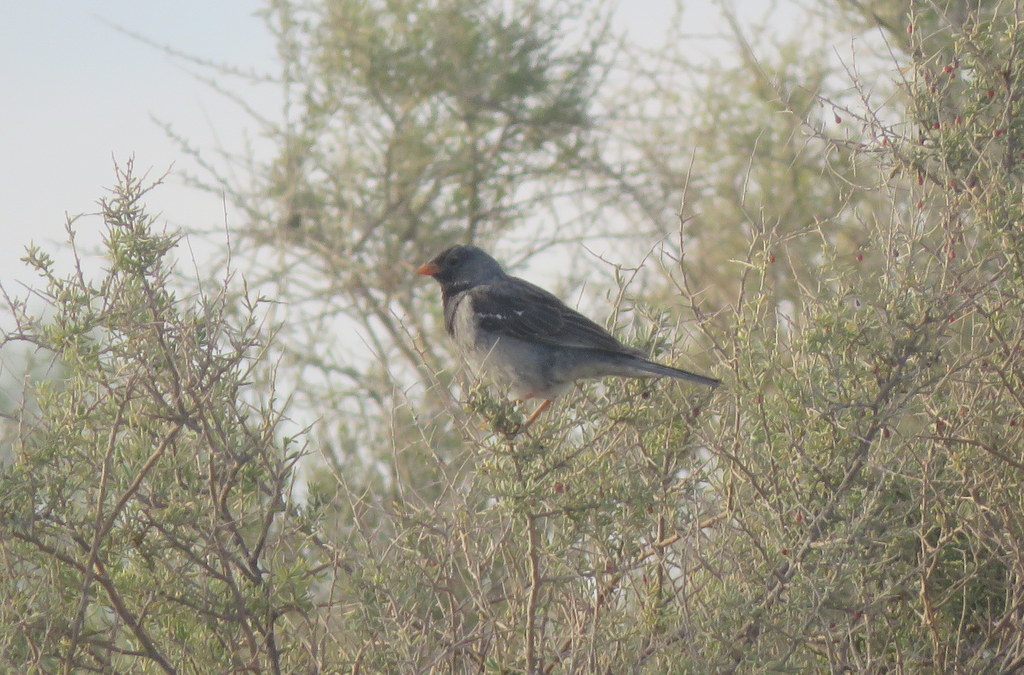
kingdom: Animalia
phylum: Chordata
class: Aves
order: Passeriformes
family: Thraupidae
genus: Rhopospina
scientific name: Rhopospina fruticeti
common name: Mourning sierra finch
